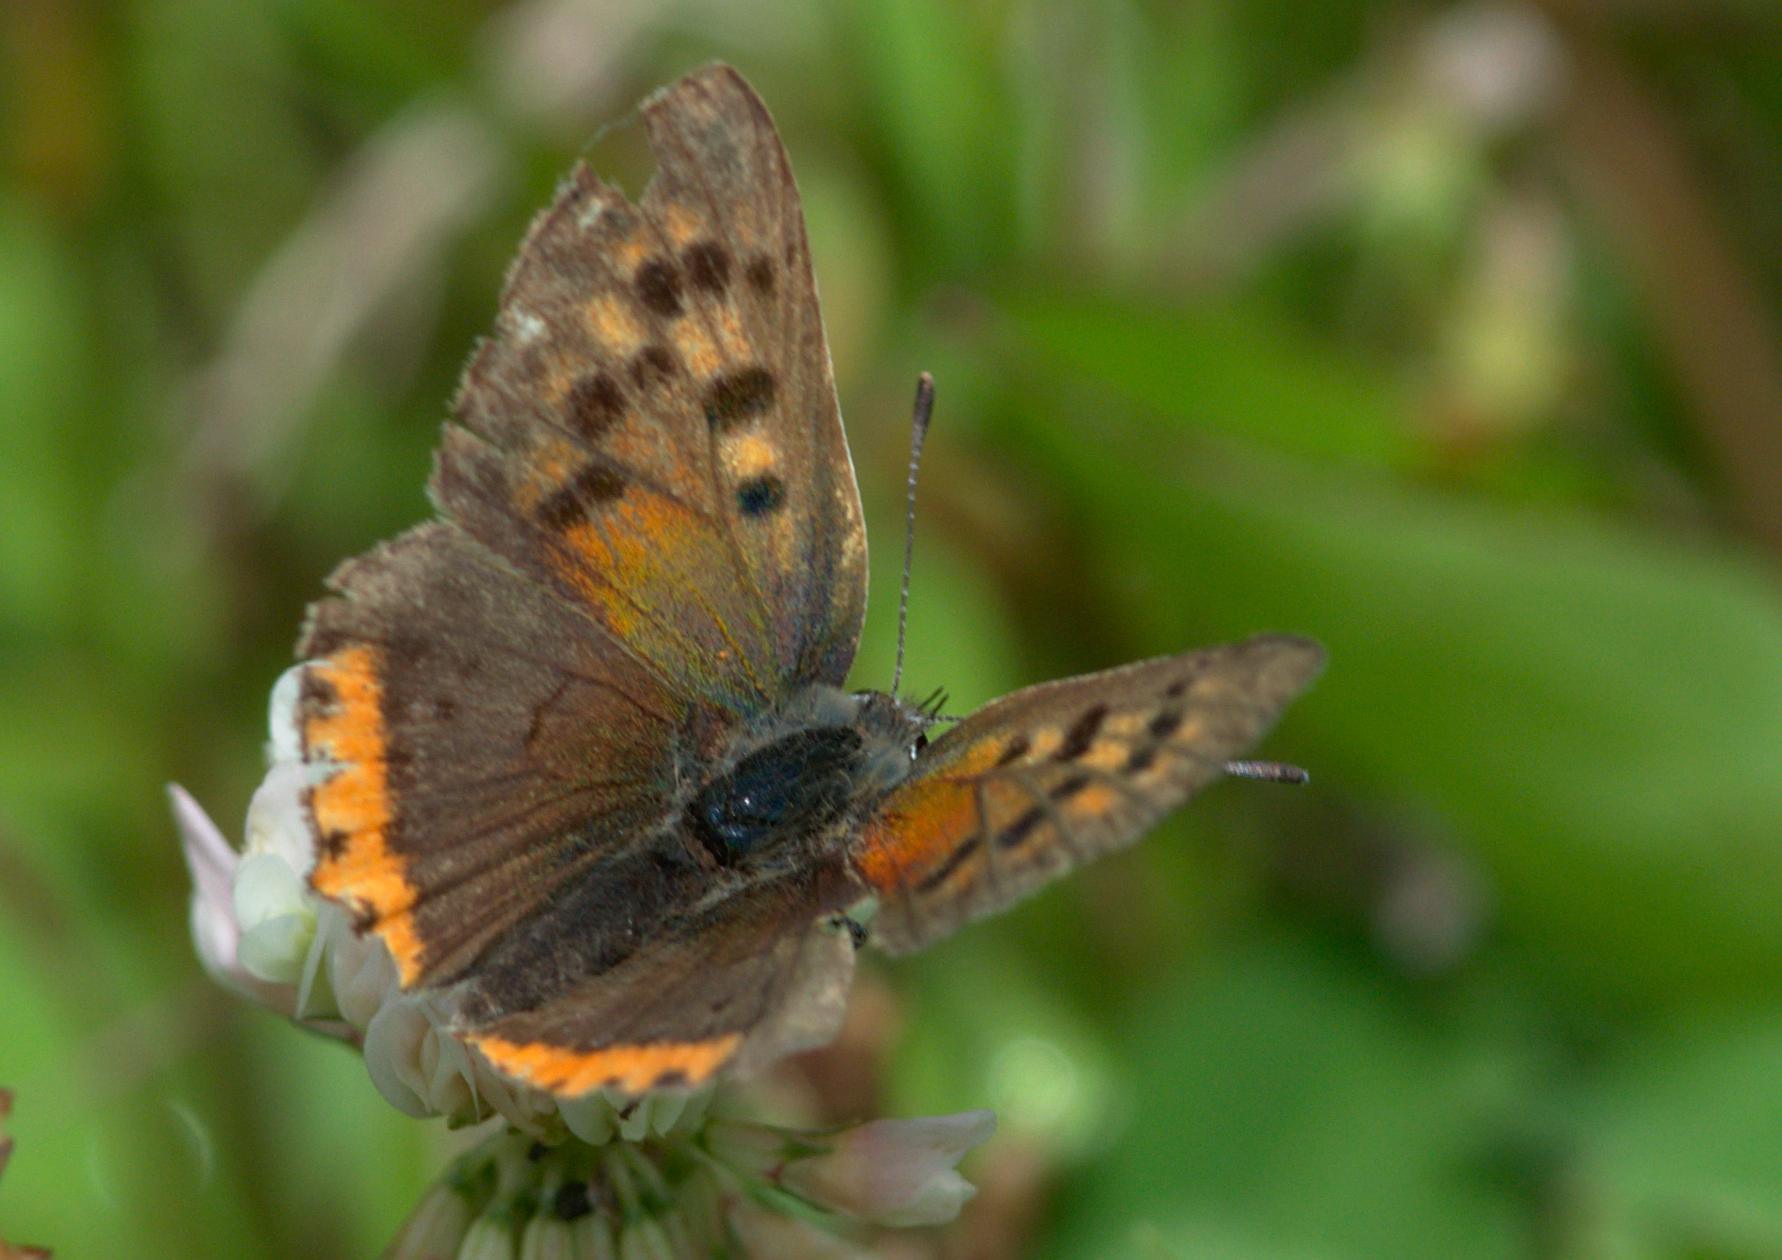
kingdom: Animalia
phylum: Arthropoda
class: Insecta
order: Lepidoptera
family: Lycaenidae
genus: Lycaena
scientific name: Lycaena phlaeas
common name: Small copper
